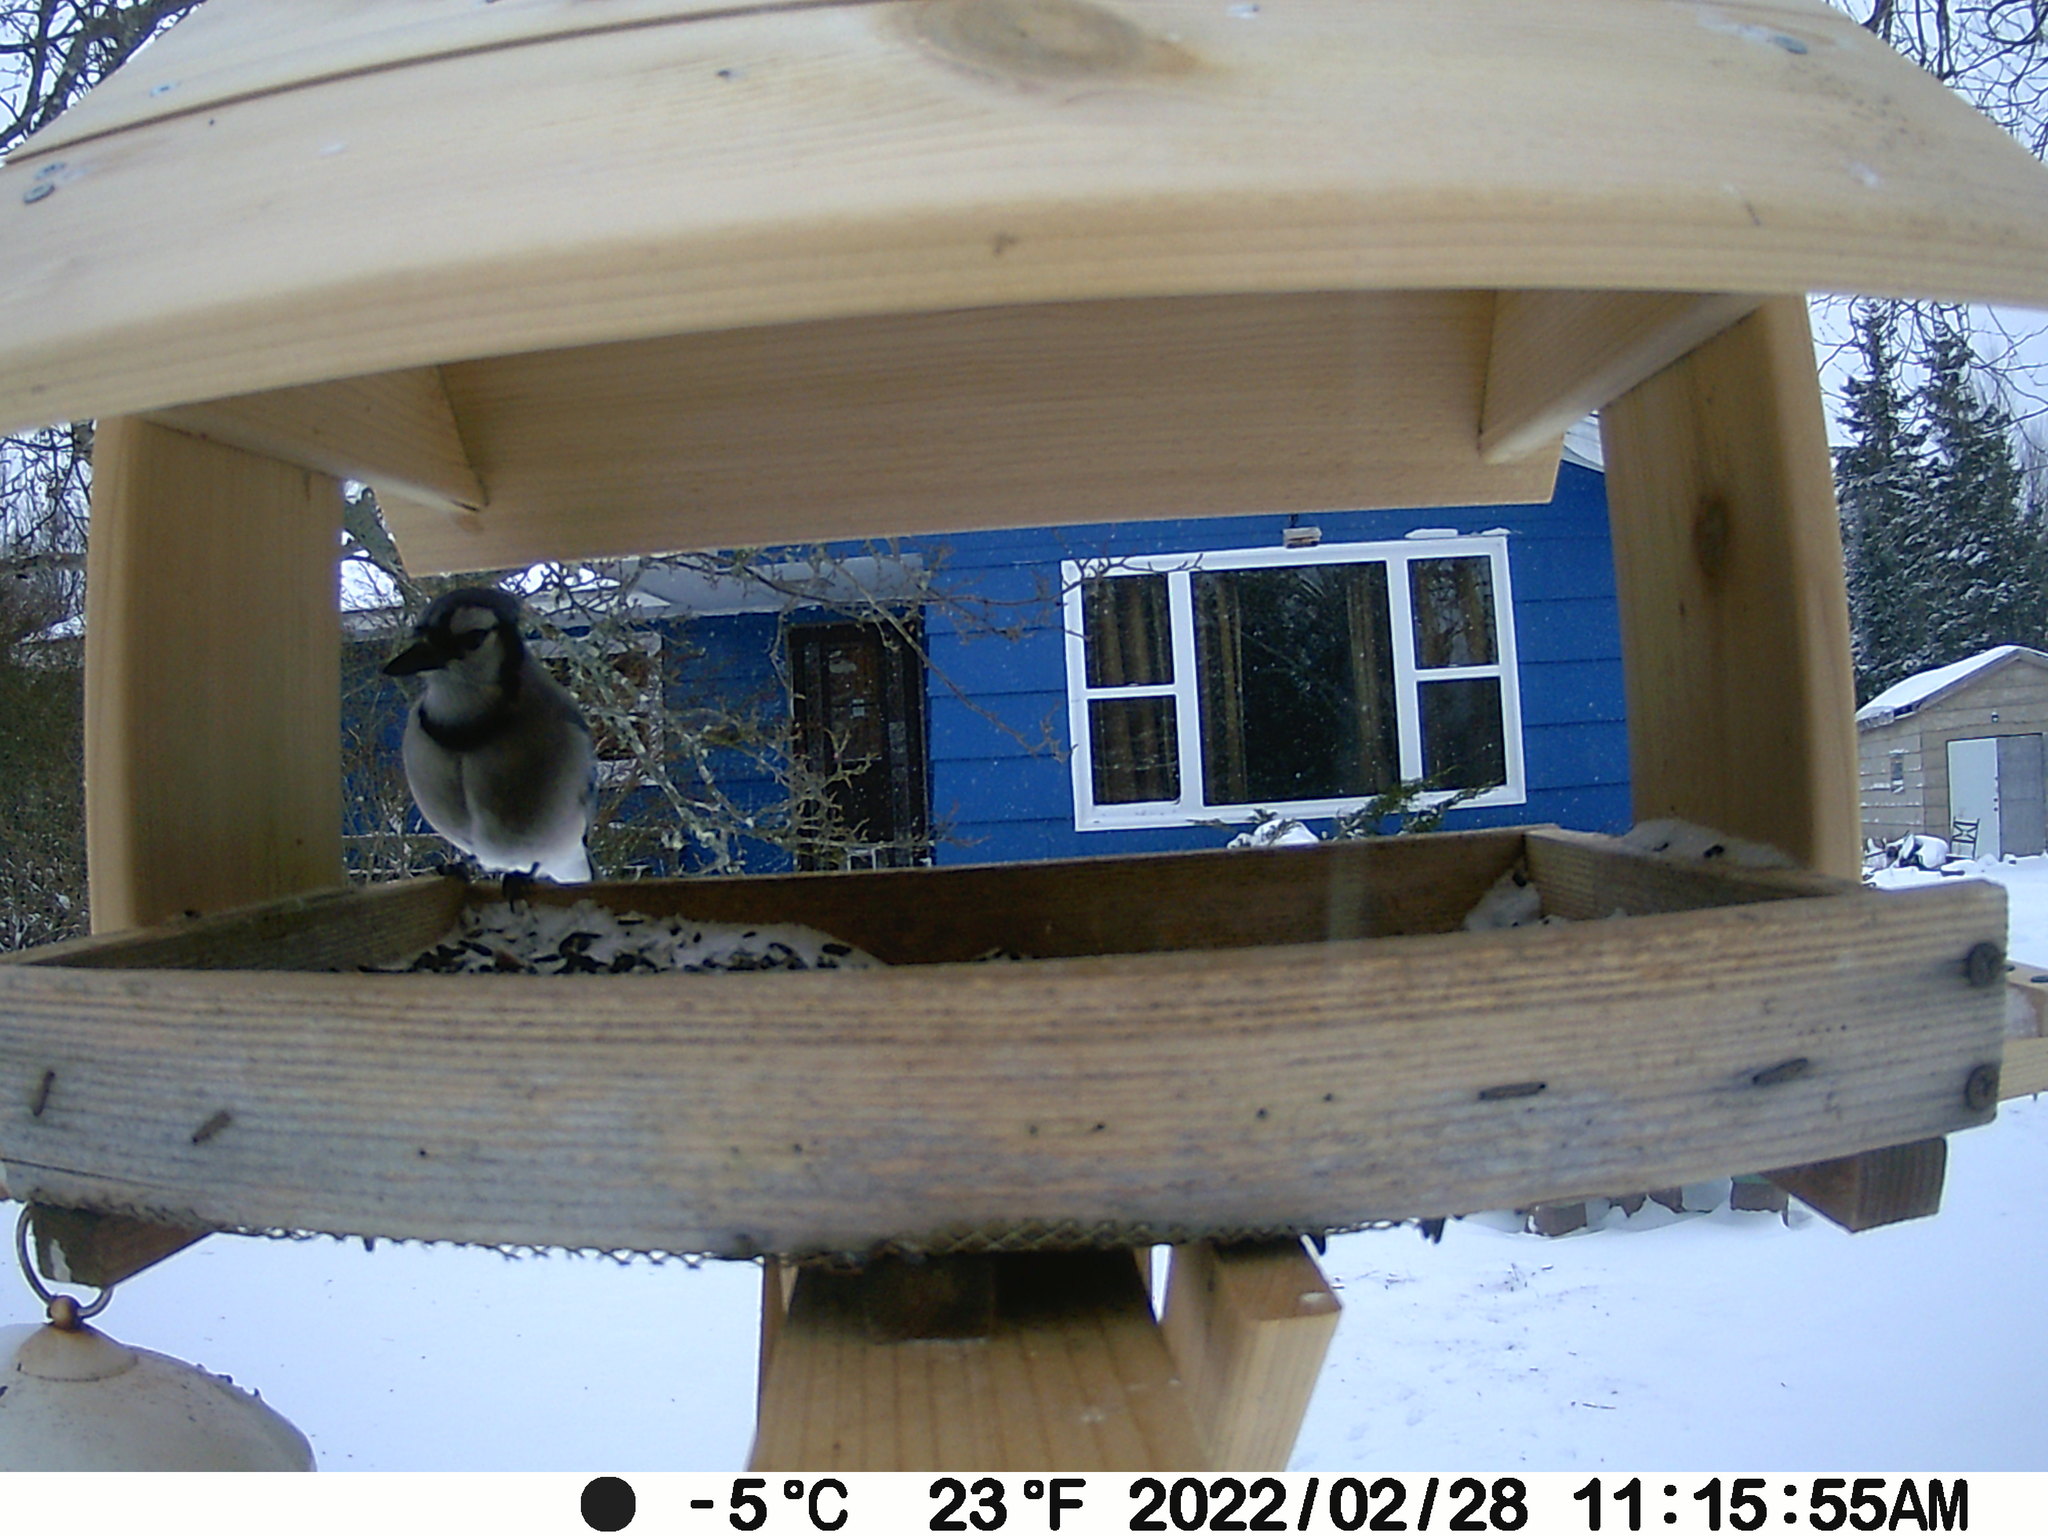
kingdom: Animalia
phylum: Chordata
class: Aves
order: Passeriformes
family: Corvidae
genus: Cyanocitta
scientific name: Cyanocitta cristata
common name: Blue jay
